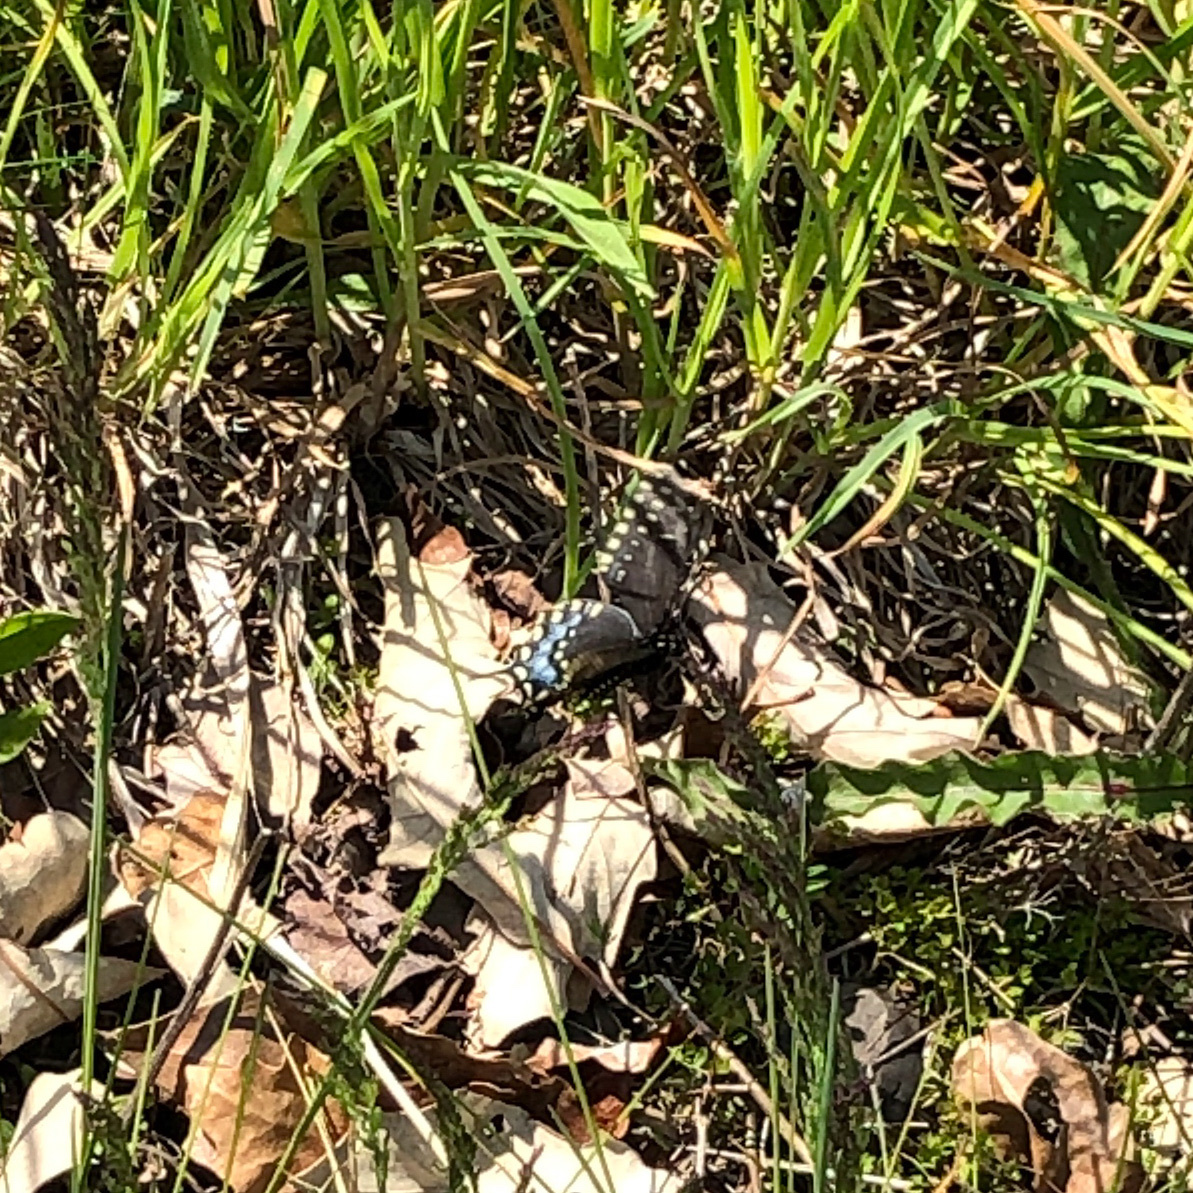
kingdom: Animalia
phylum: Arthropoda
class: Insecta
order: Lepidoptera
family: Papilionidae
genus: Papilio
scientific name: Papilio polyxenes
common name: Black swallowtail
